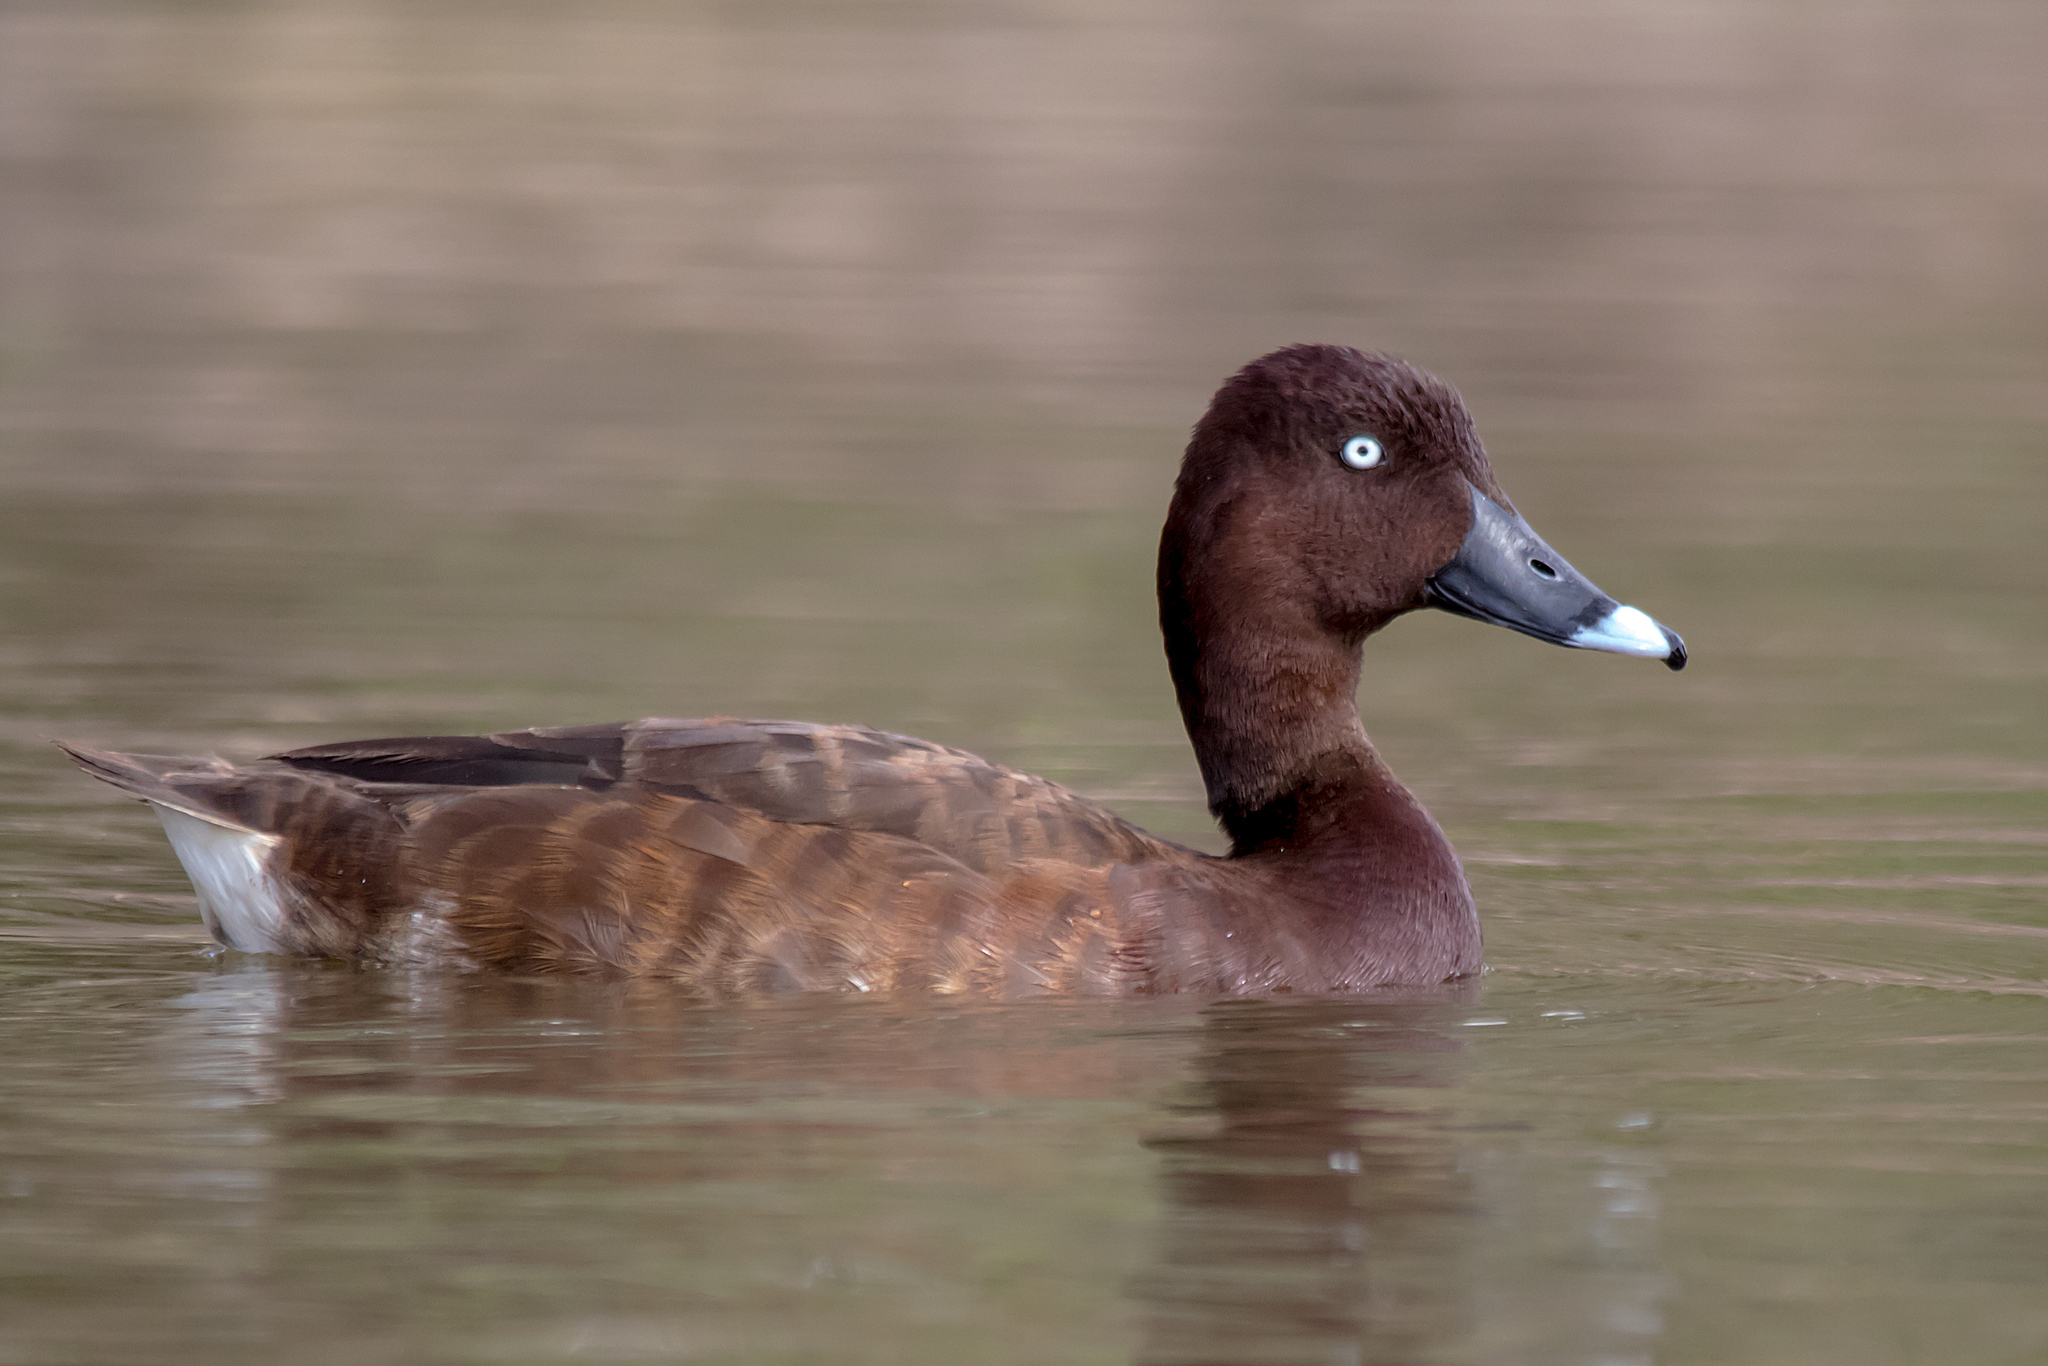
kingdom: Animalia
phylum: Chordata
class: Aves
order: Anseriformes
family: Anatidae
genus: Aythya
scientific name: Aythya australis
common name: Hardhead
